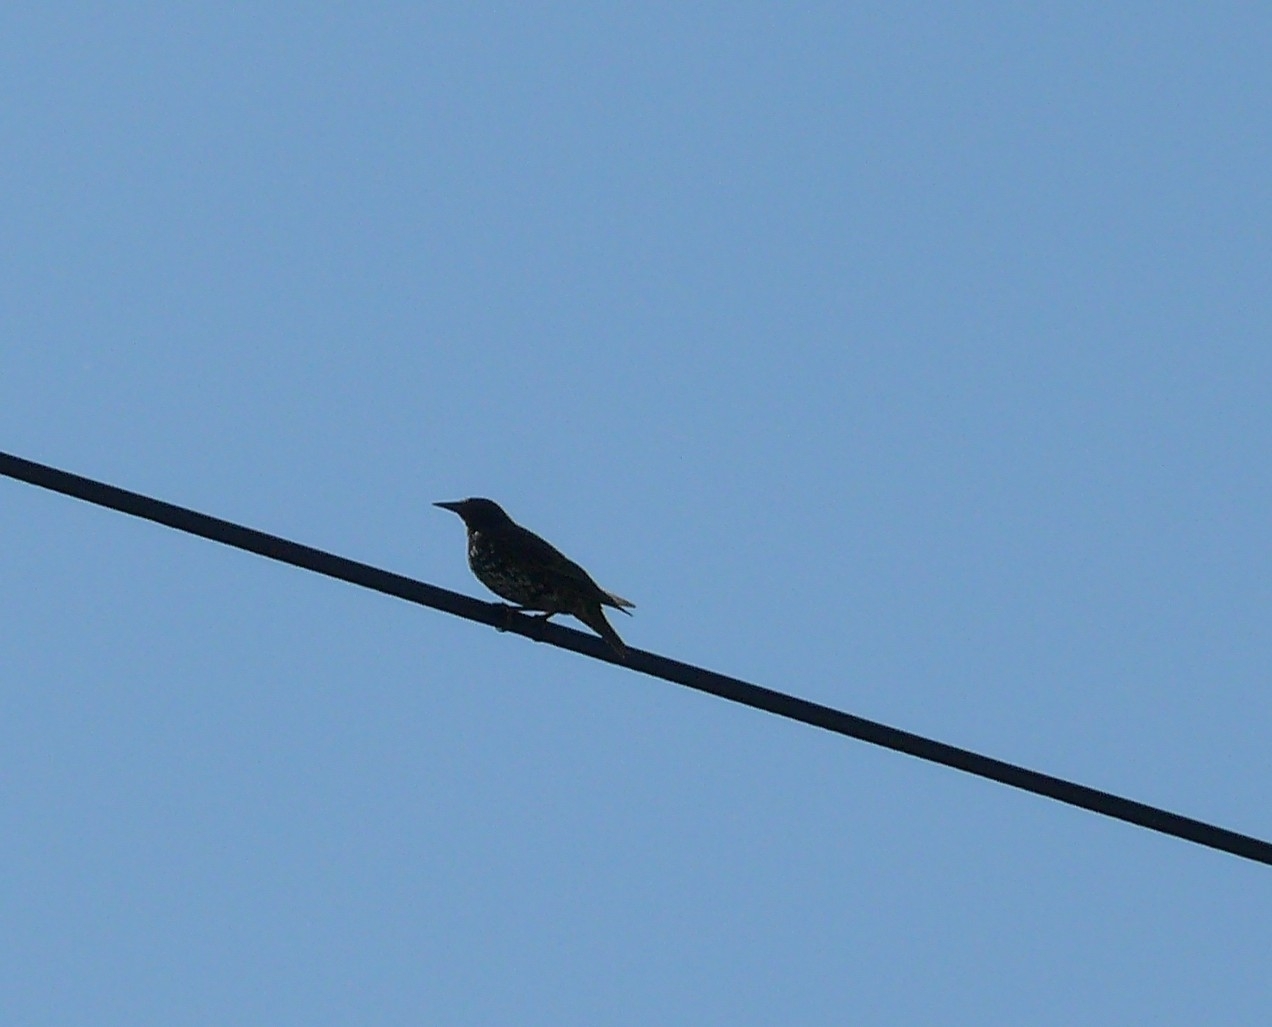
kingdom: Animalia
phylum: Chordata
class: Aves
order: Passeriformes
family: Sturnidae
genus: Sturnus
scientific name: Sturnus vulgaris
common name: Common starling
